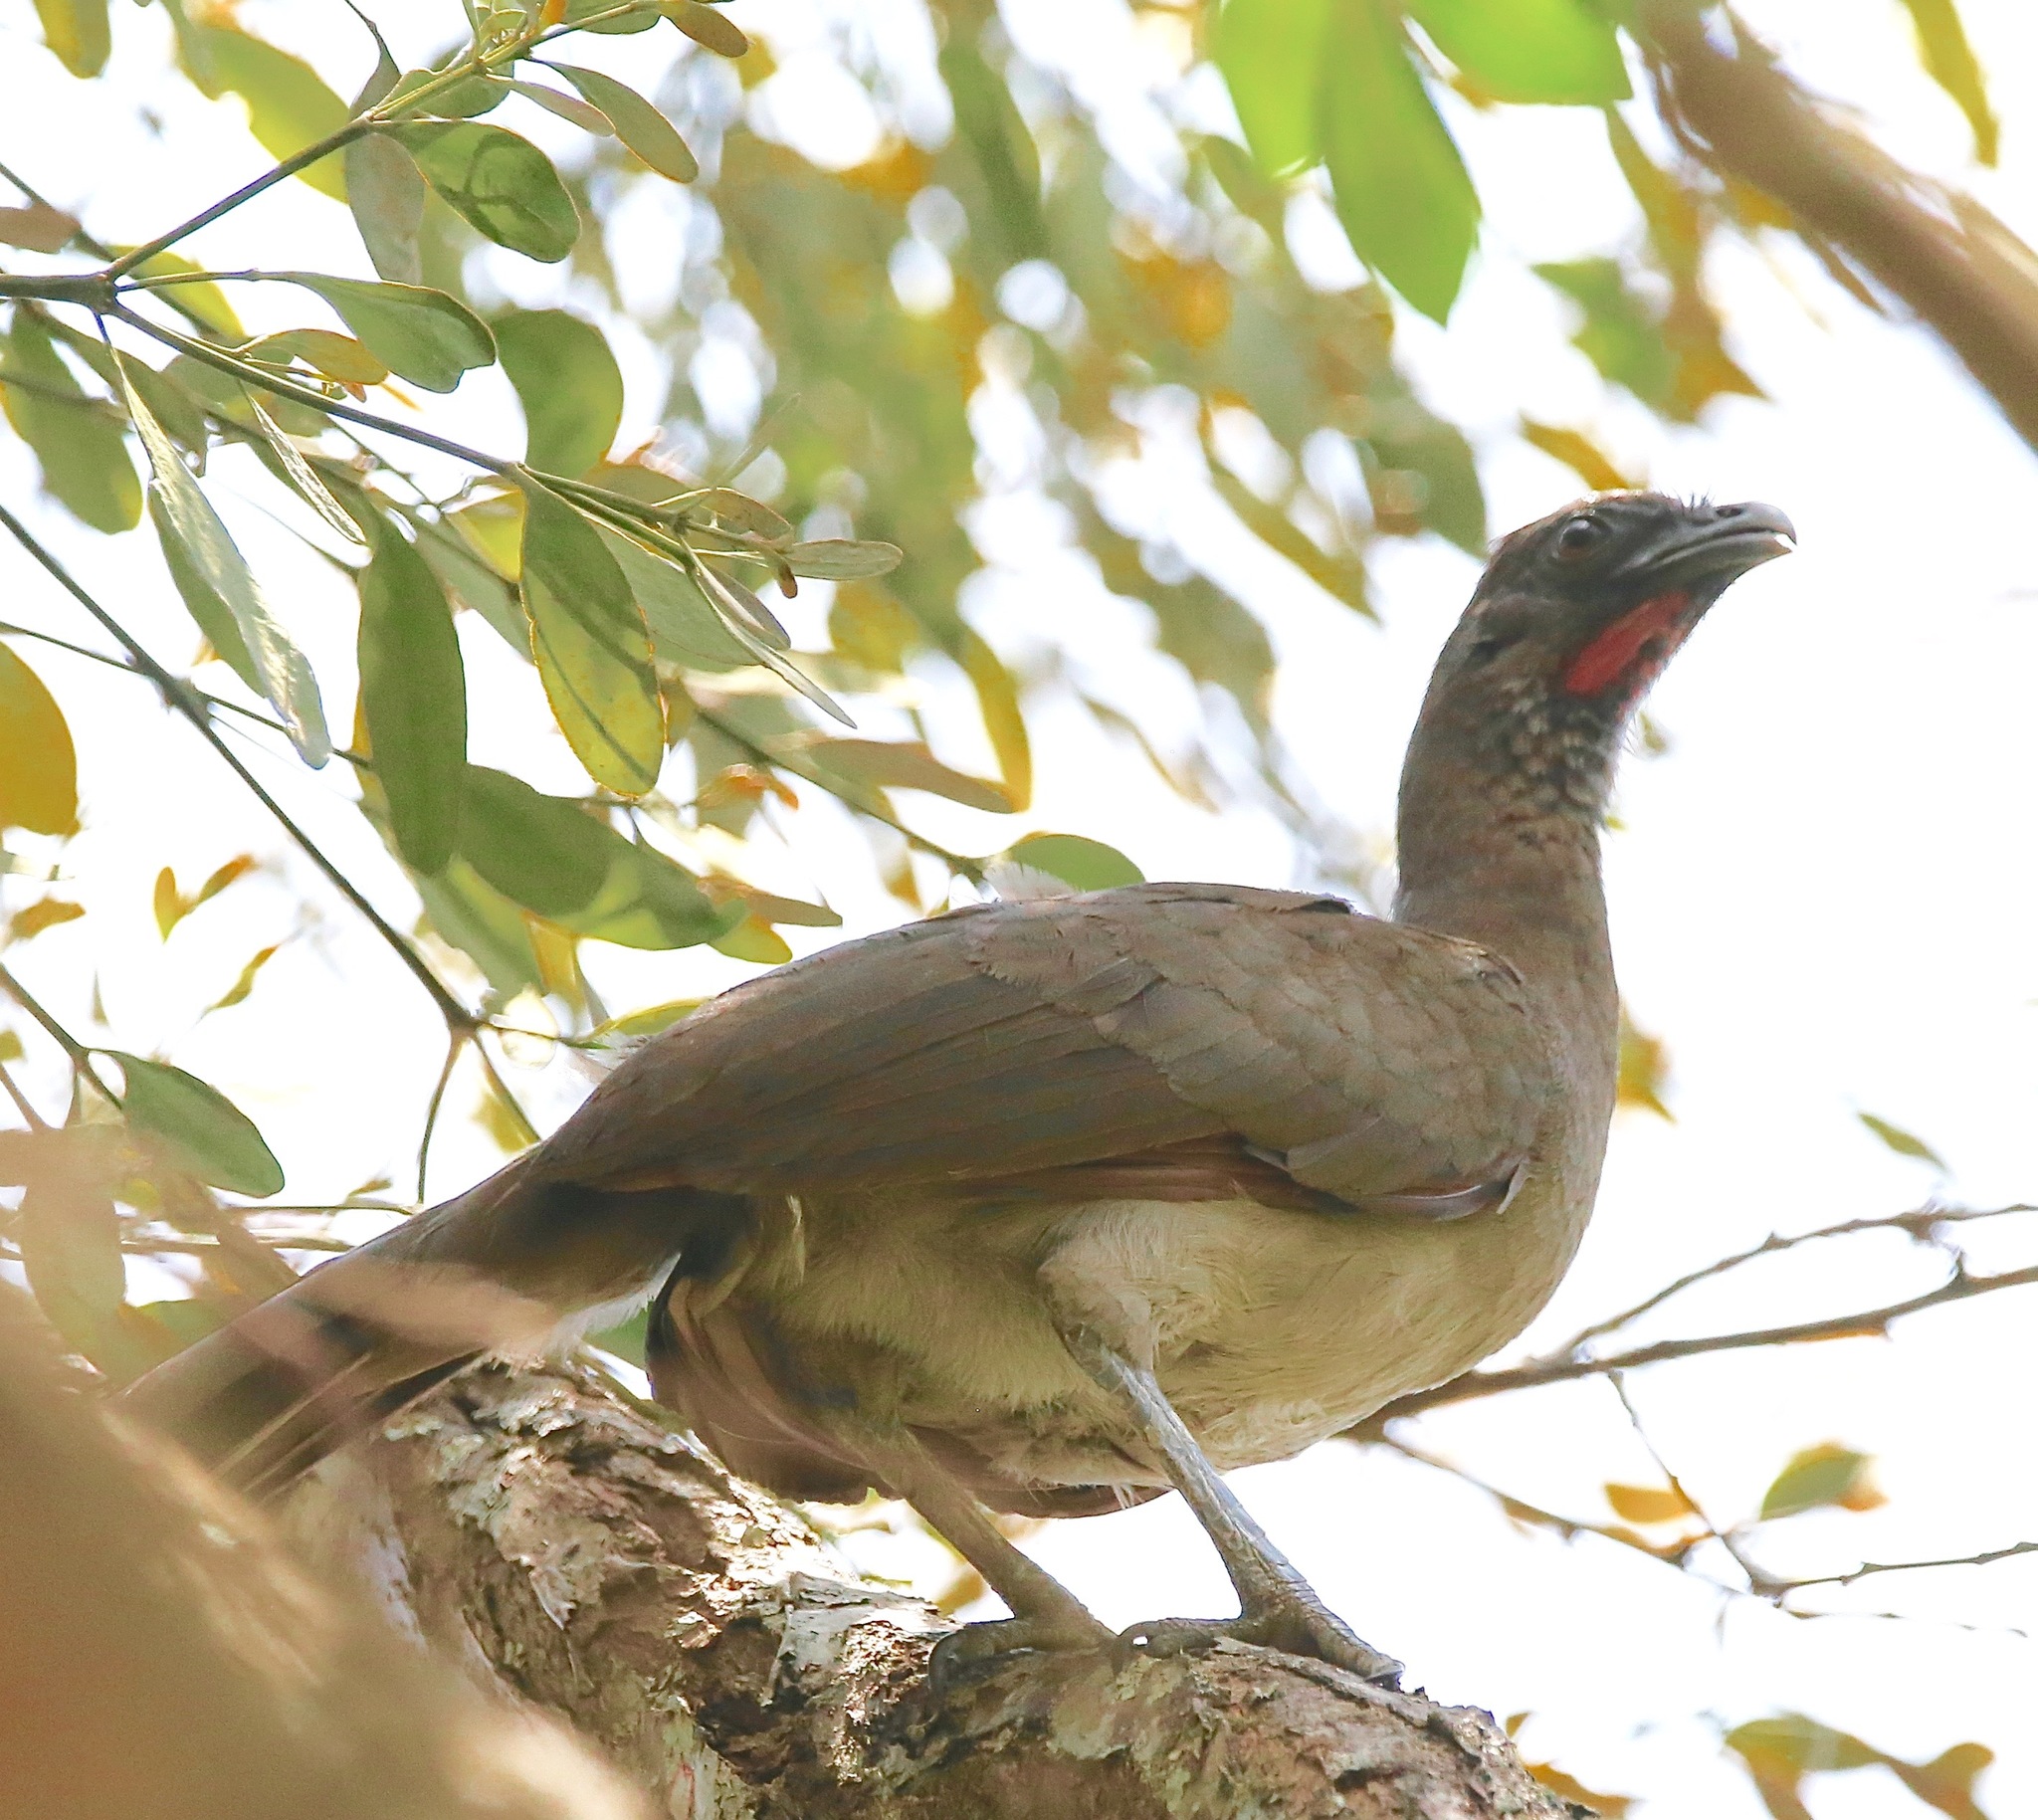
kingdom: Animalia
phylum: Chordata
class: Aves
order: Galliformes
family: Cracidae
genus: Ortalis
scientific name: Ortalis cinereiceps
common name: Grey-headed chachalaca
